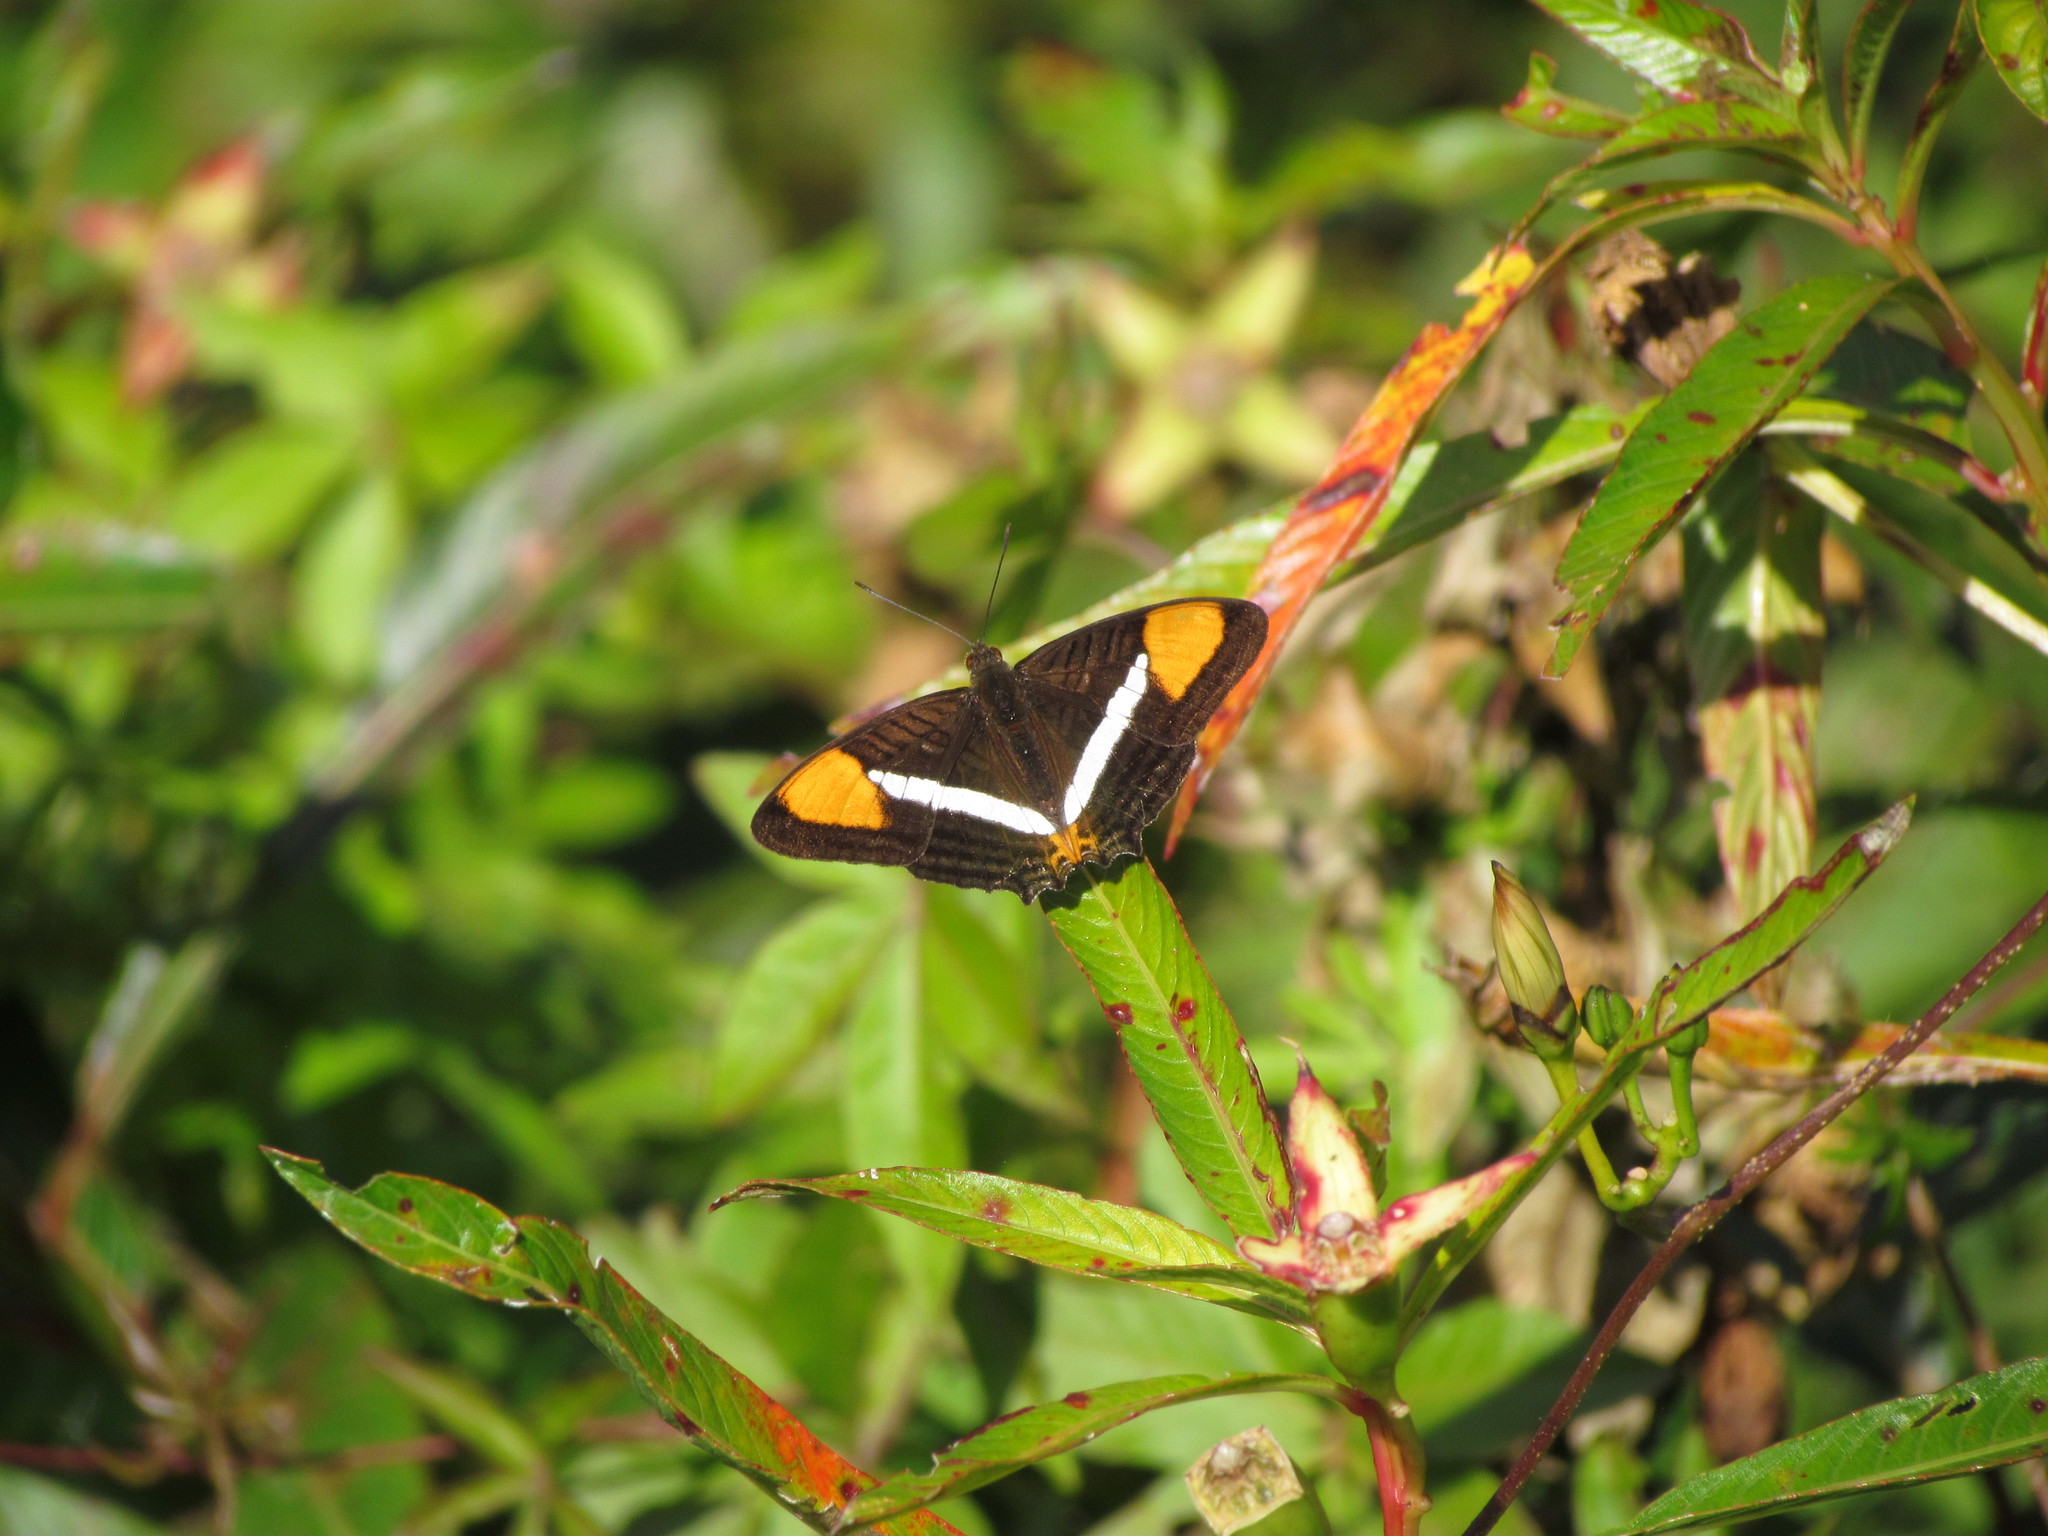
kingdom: Animalia
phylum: Arthropoda
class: Insecta
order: Lepidoptera
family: Nymphalidae
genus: Limenitis
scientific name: Limenitis syma
